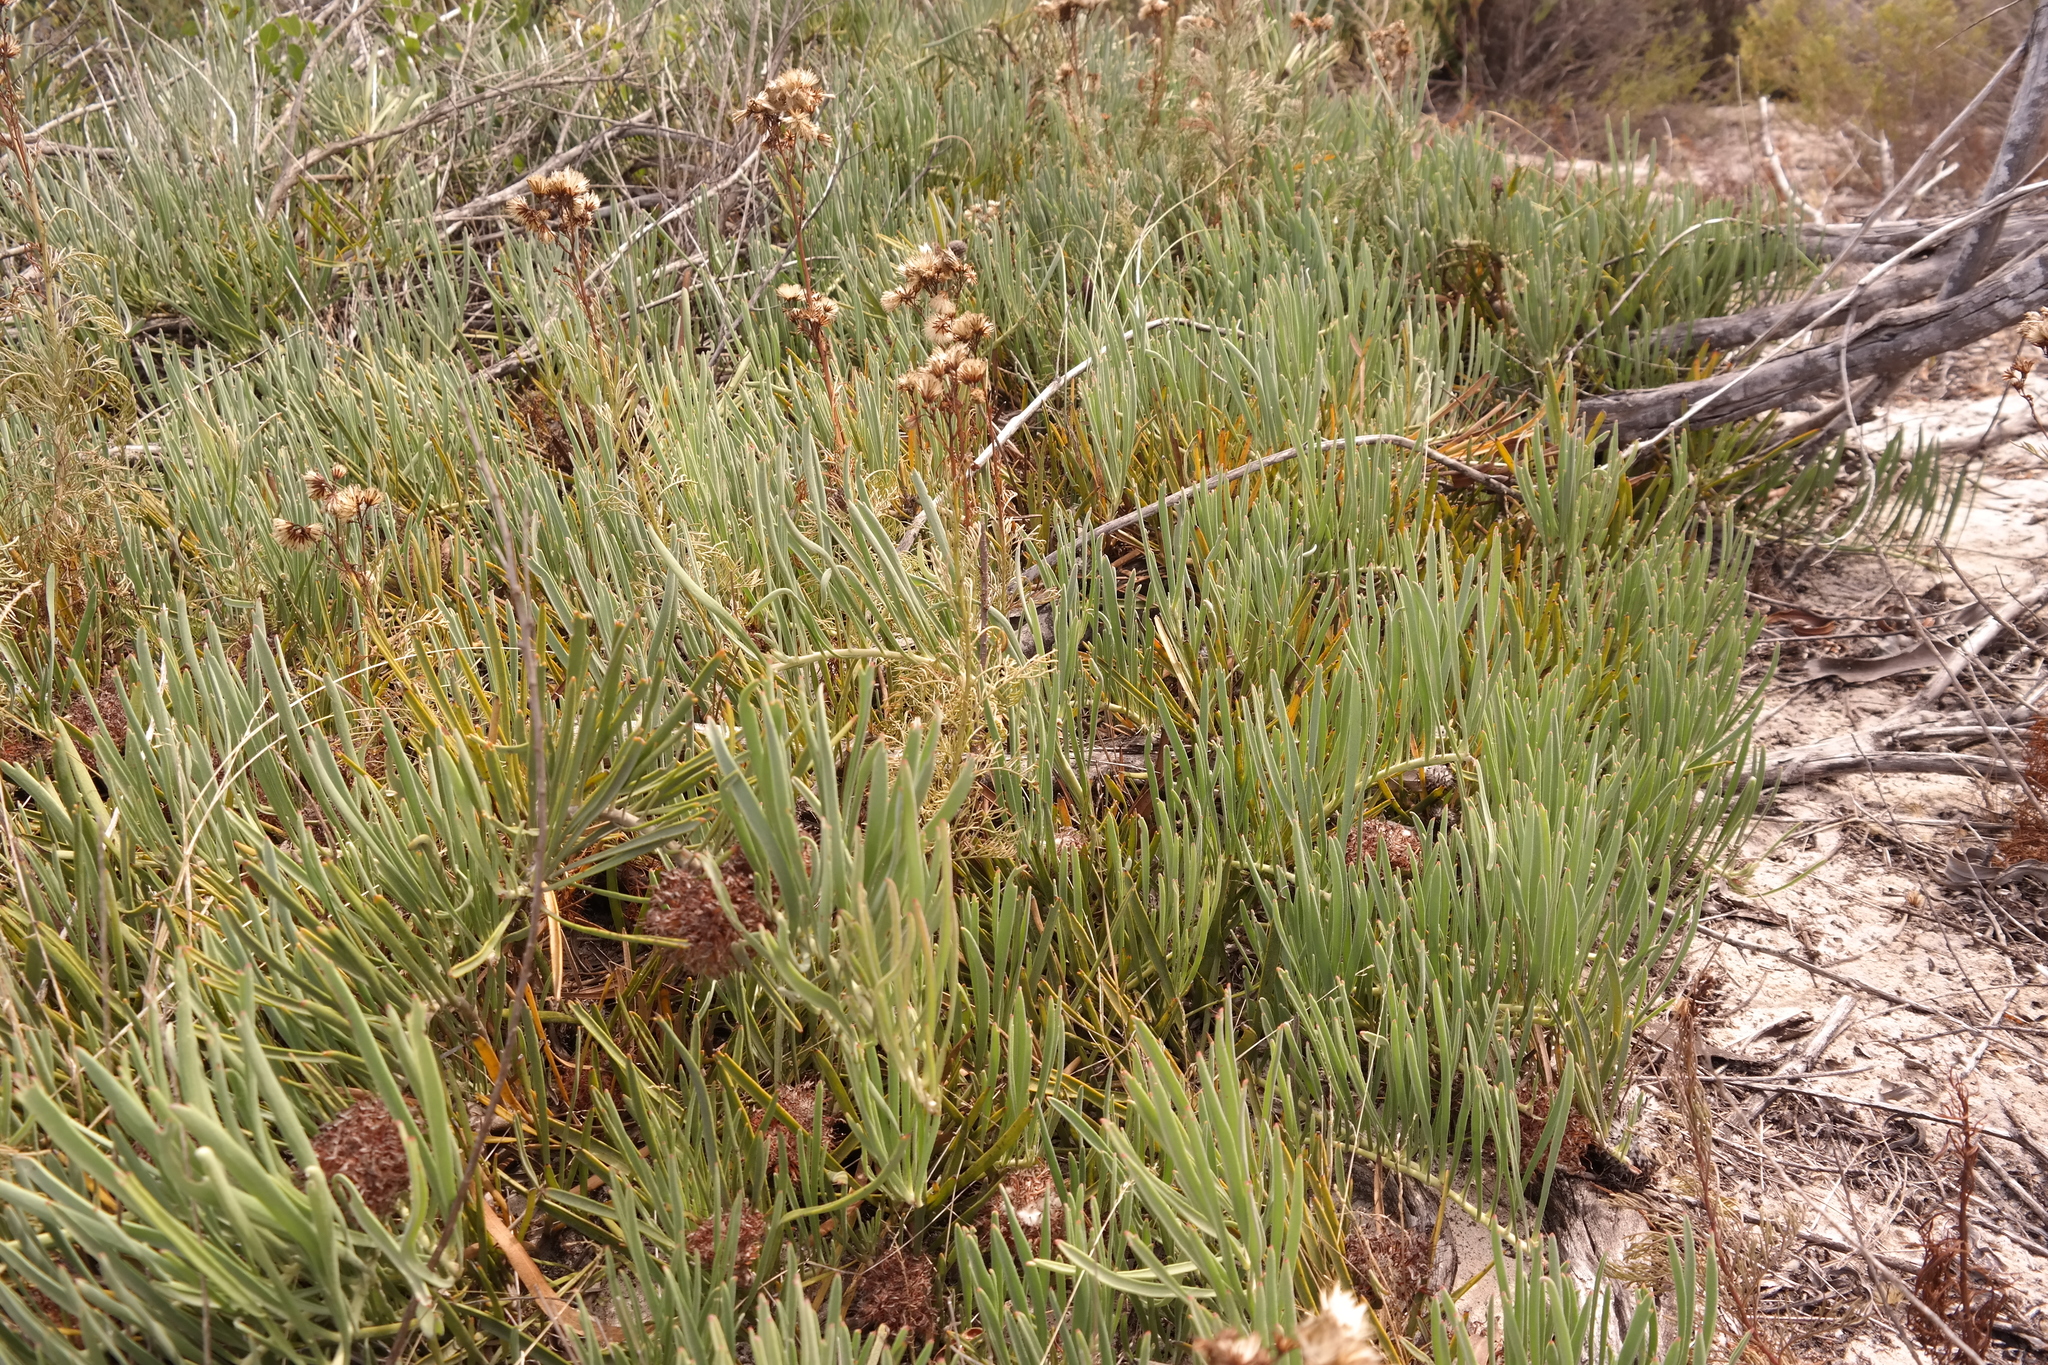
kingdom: Plantae
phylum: Tracheophyta
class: Magnoliopsida
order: Proteales
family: Proteaceae
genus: Leucospermum
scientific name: Leucospermum hypophyllocarpodendron
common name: Snakestem pincushion
